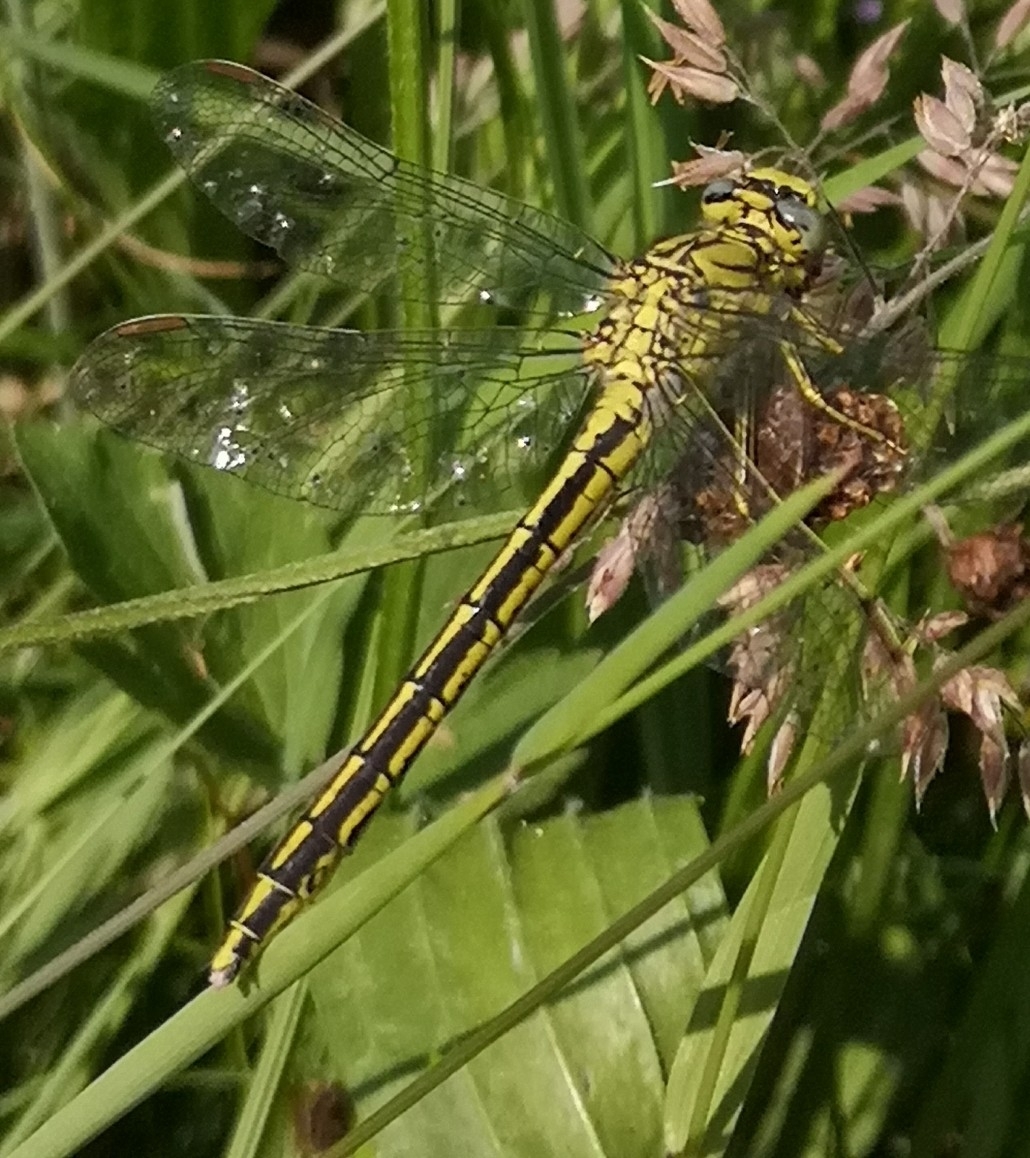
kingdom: Animalia
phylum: Arthropoda
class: Insecta
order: Odonata
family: Gomphidae
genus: Gomphus
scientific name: Gomphus pulchellus
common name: Western clubtail
